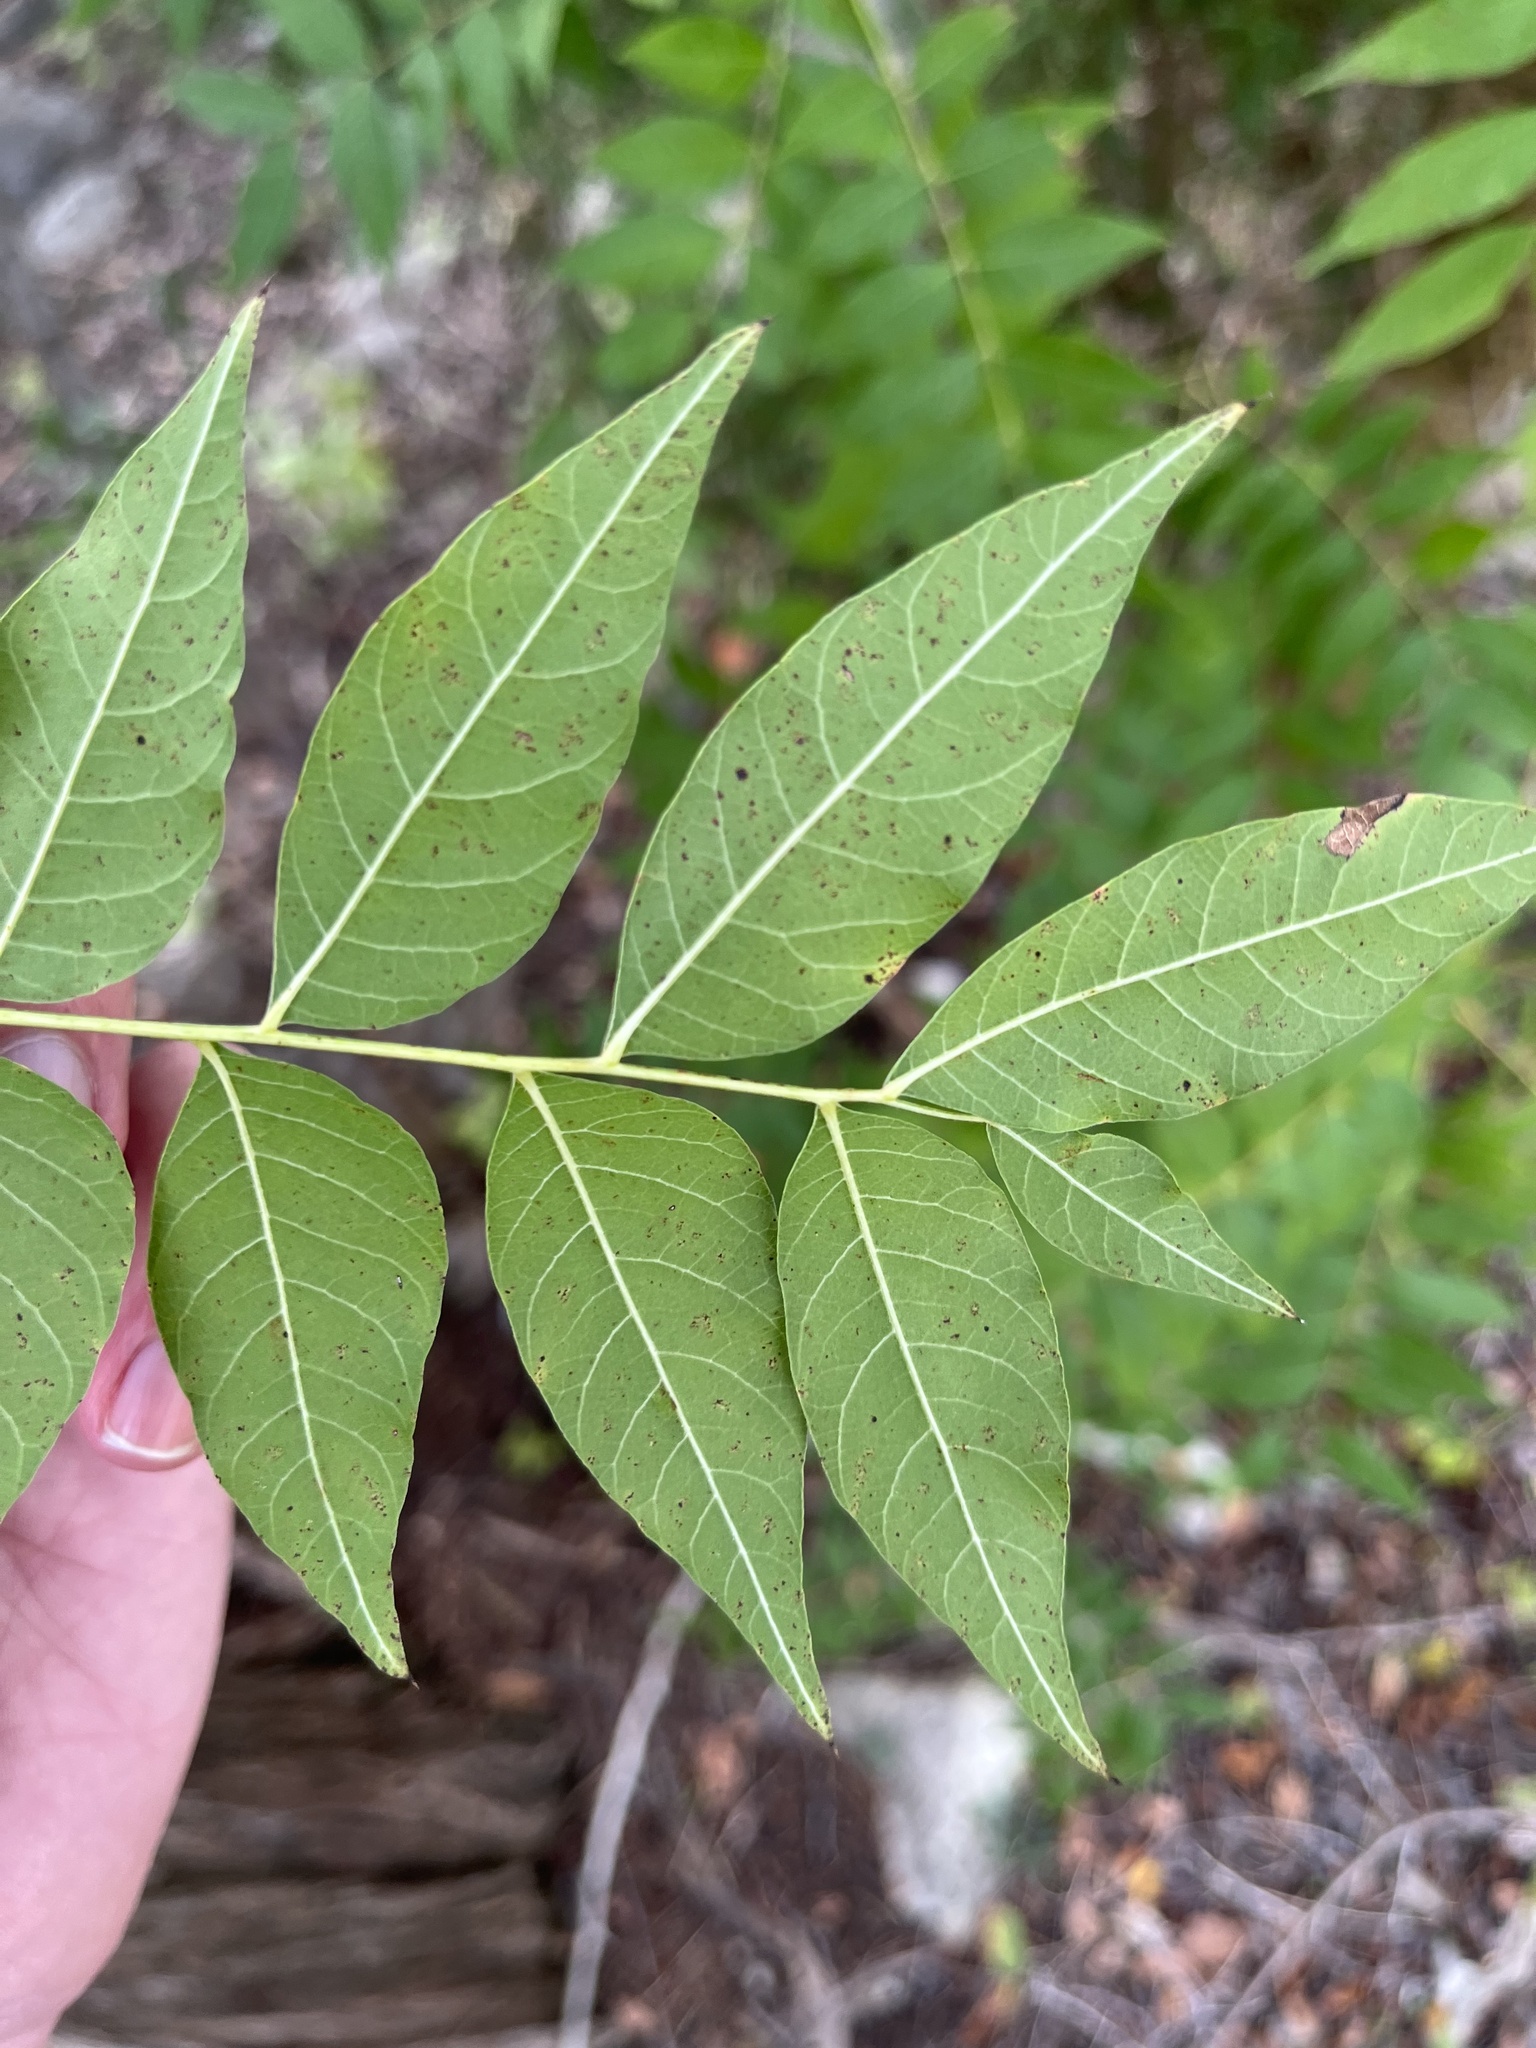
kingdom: Plantae
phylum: Tracheophyta
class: Magnoliopsida
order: Sapindales
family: Anacardiaceae
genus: Pistacia
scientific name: Pistacia chinensis
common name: Chinese pistache
